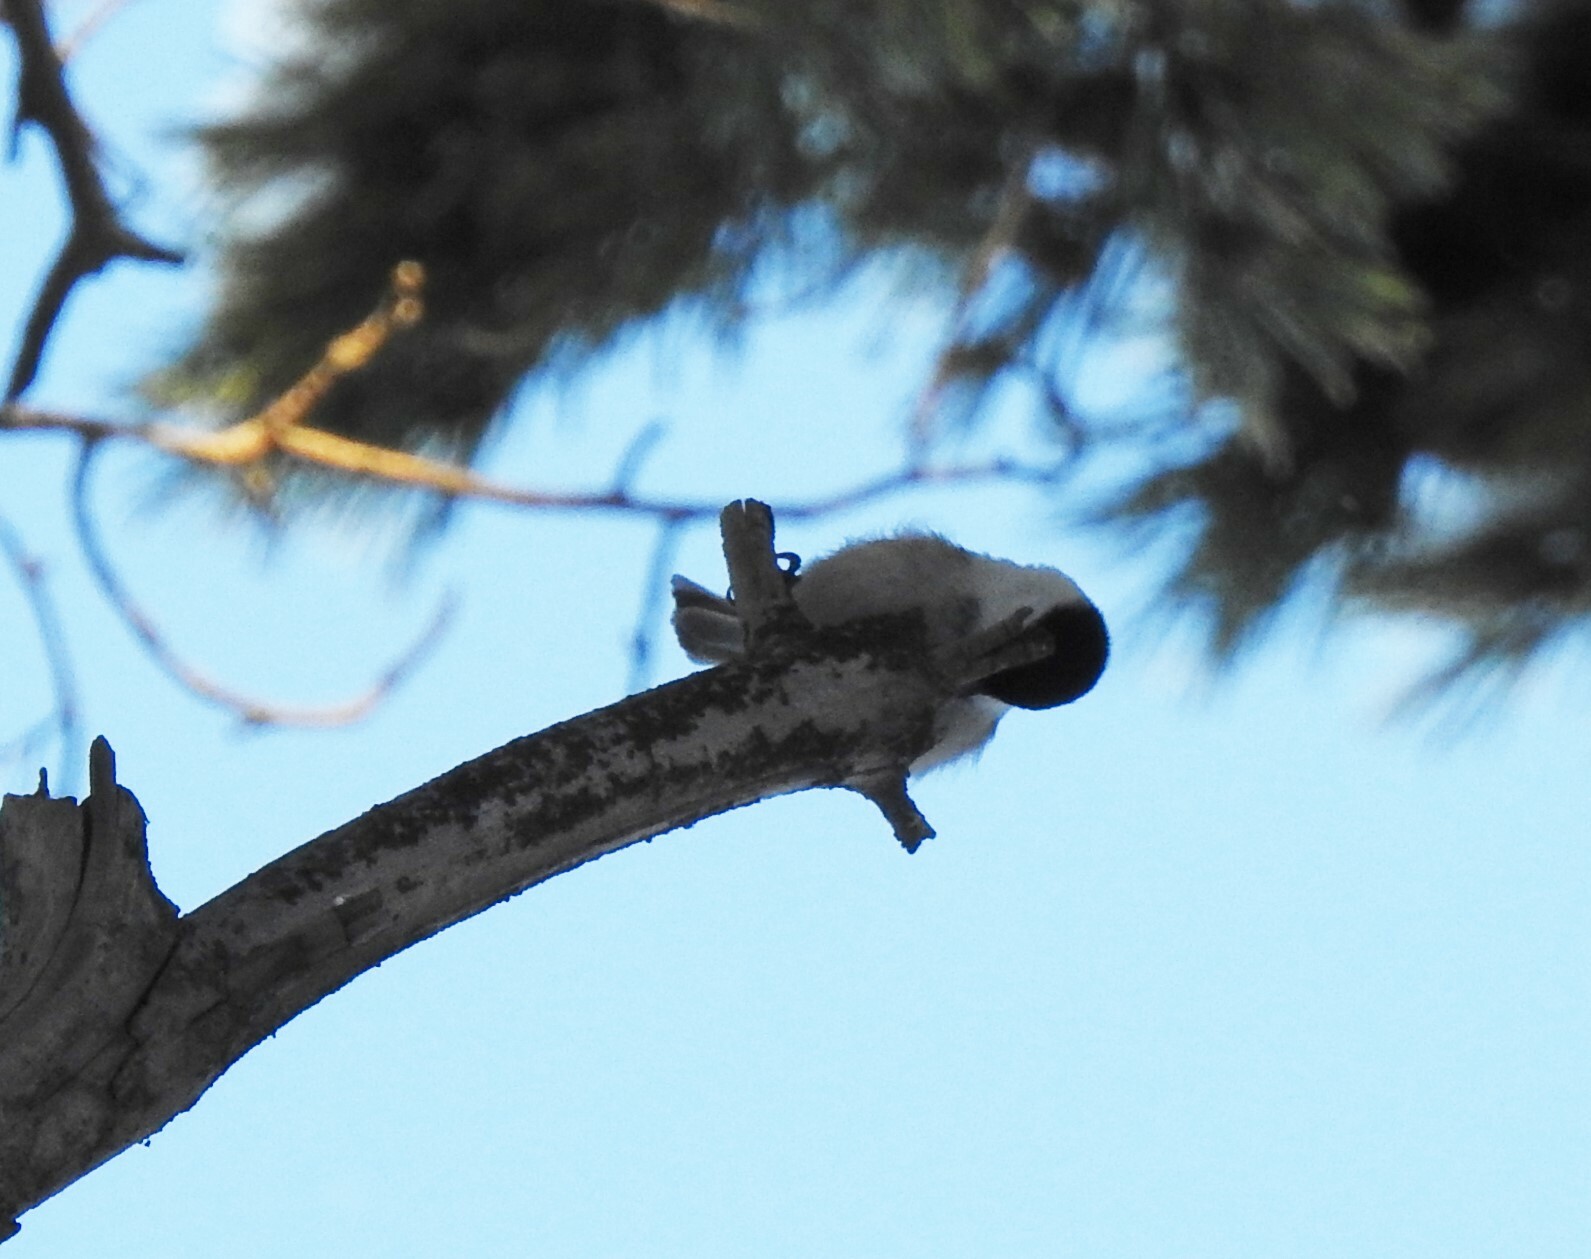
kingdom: Animalia
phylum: Chordata
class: Aves
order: Passeriformes
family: Paridae
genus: Poecile
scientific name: Poecile montanus
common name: Willow tit
